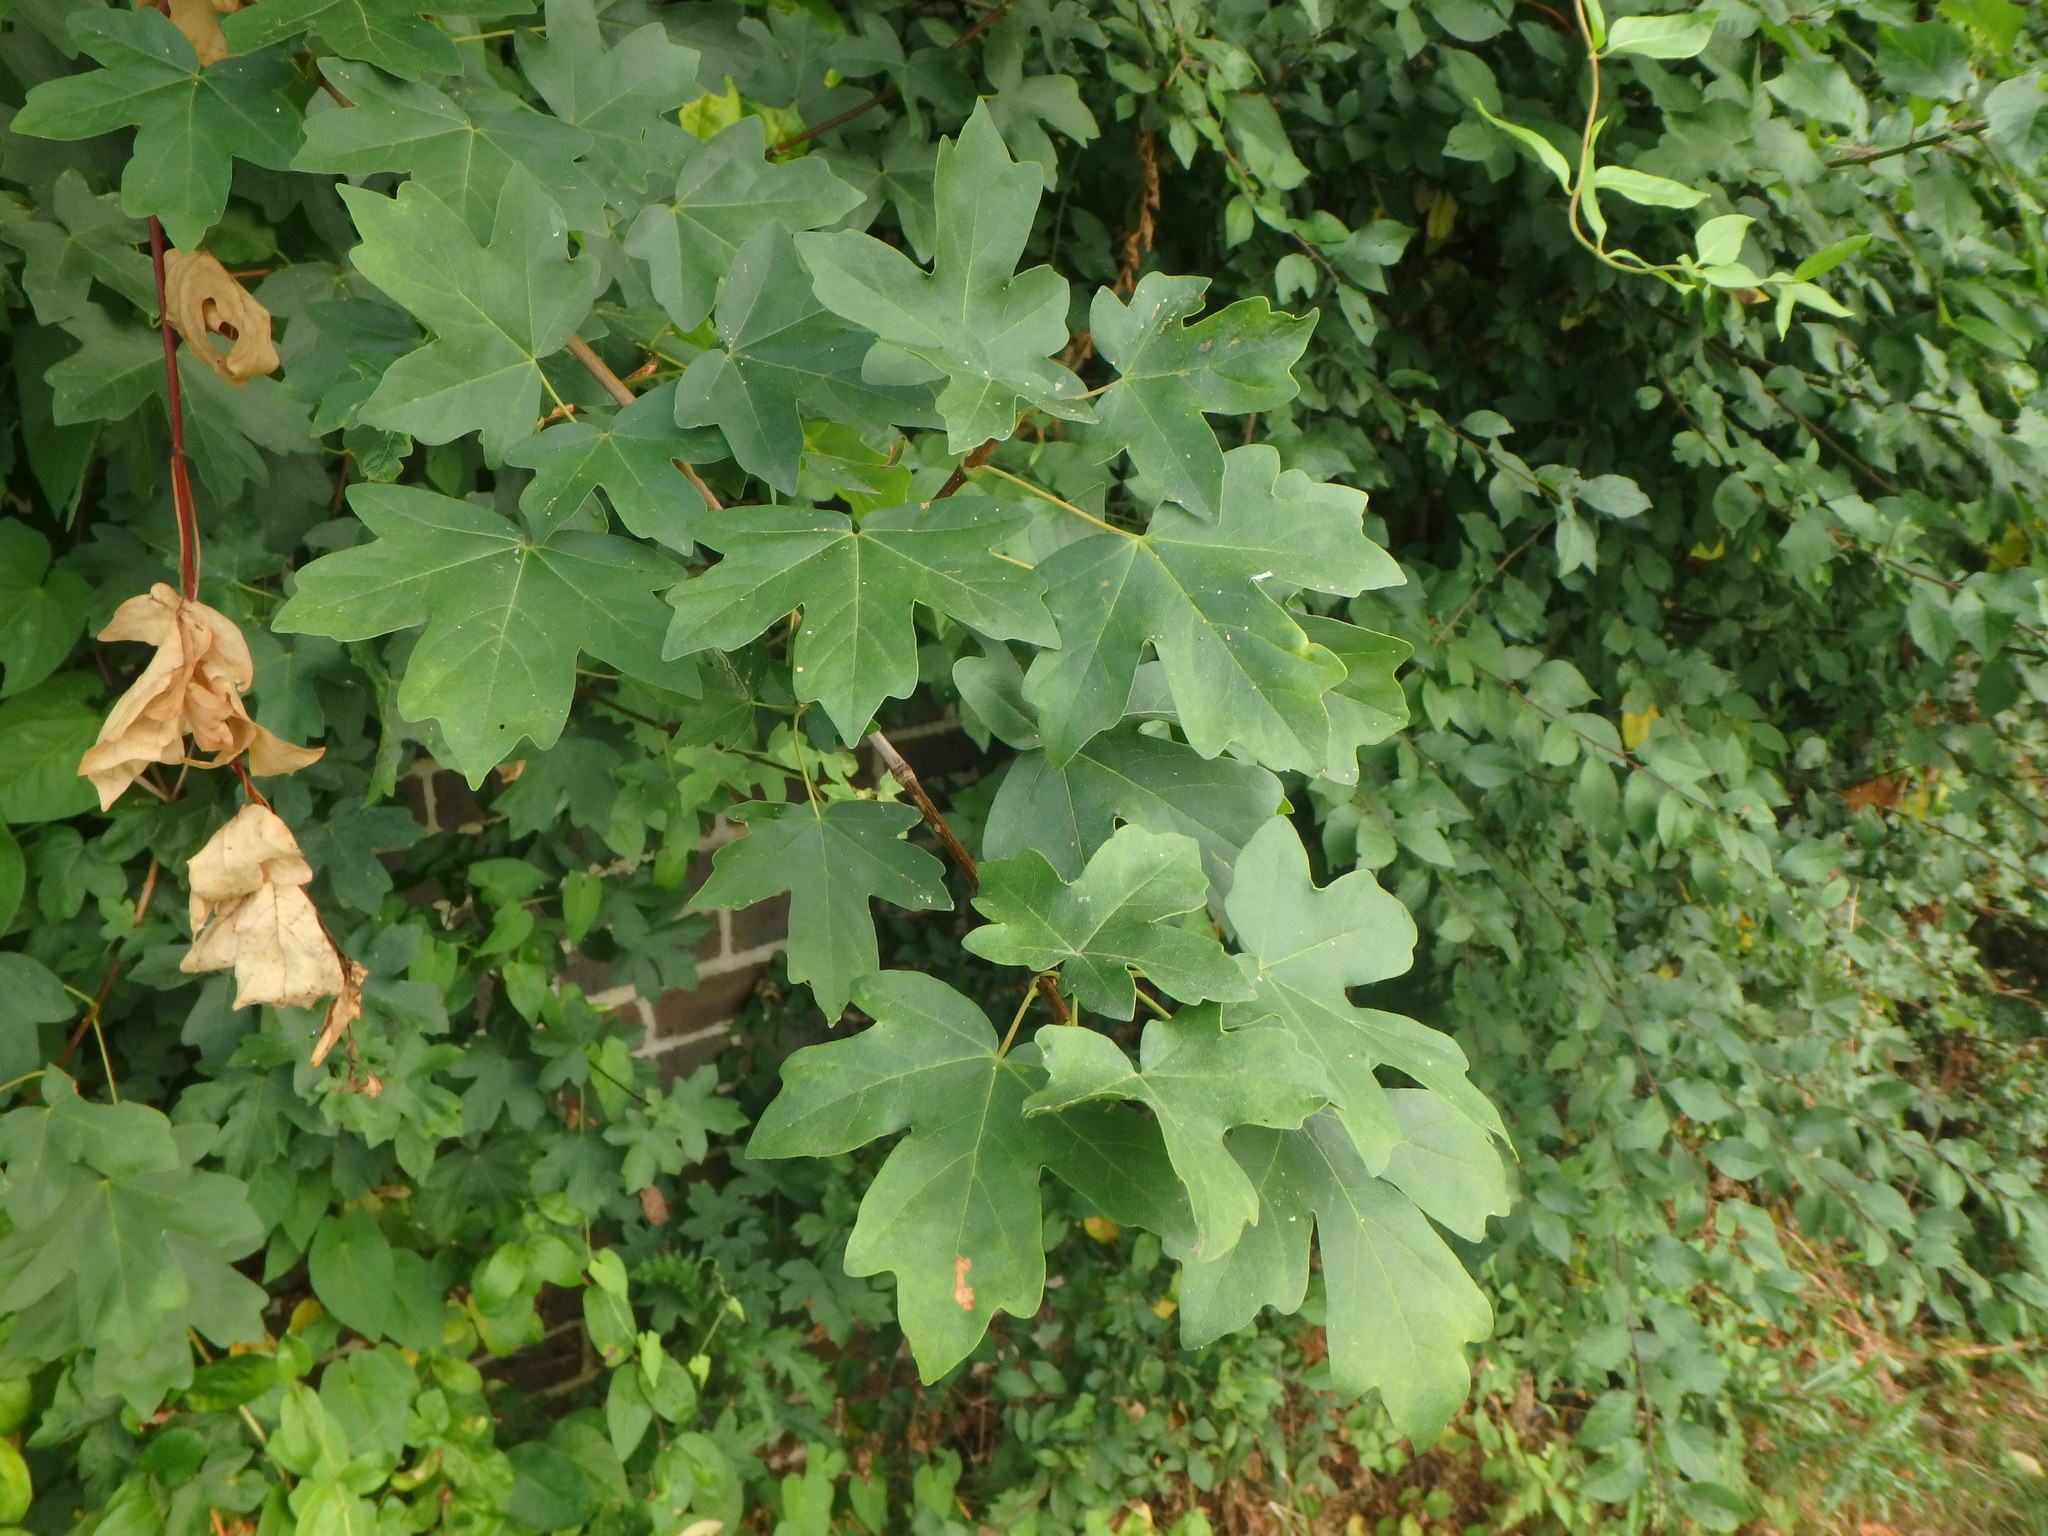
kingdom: Plantae
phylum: Tracheophyta
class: Magnoliopsida
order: Sapindales
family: Sapindaceae
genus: Acer
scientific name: Acer campestre
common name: Field maple
